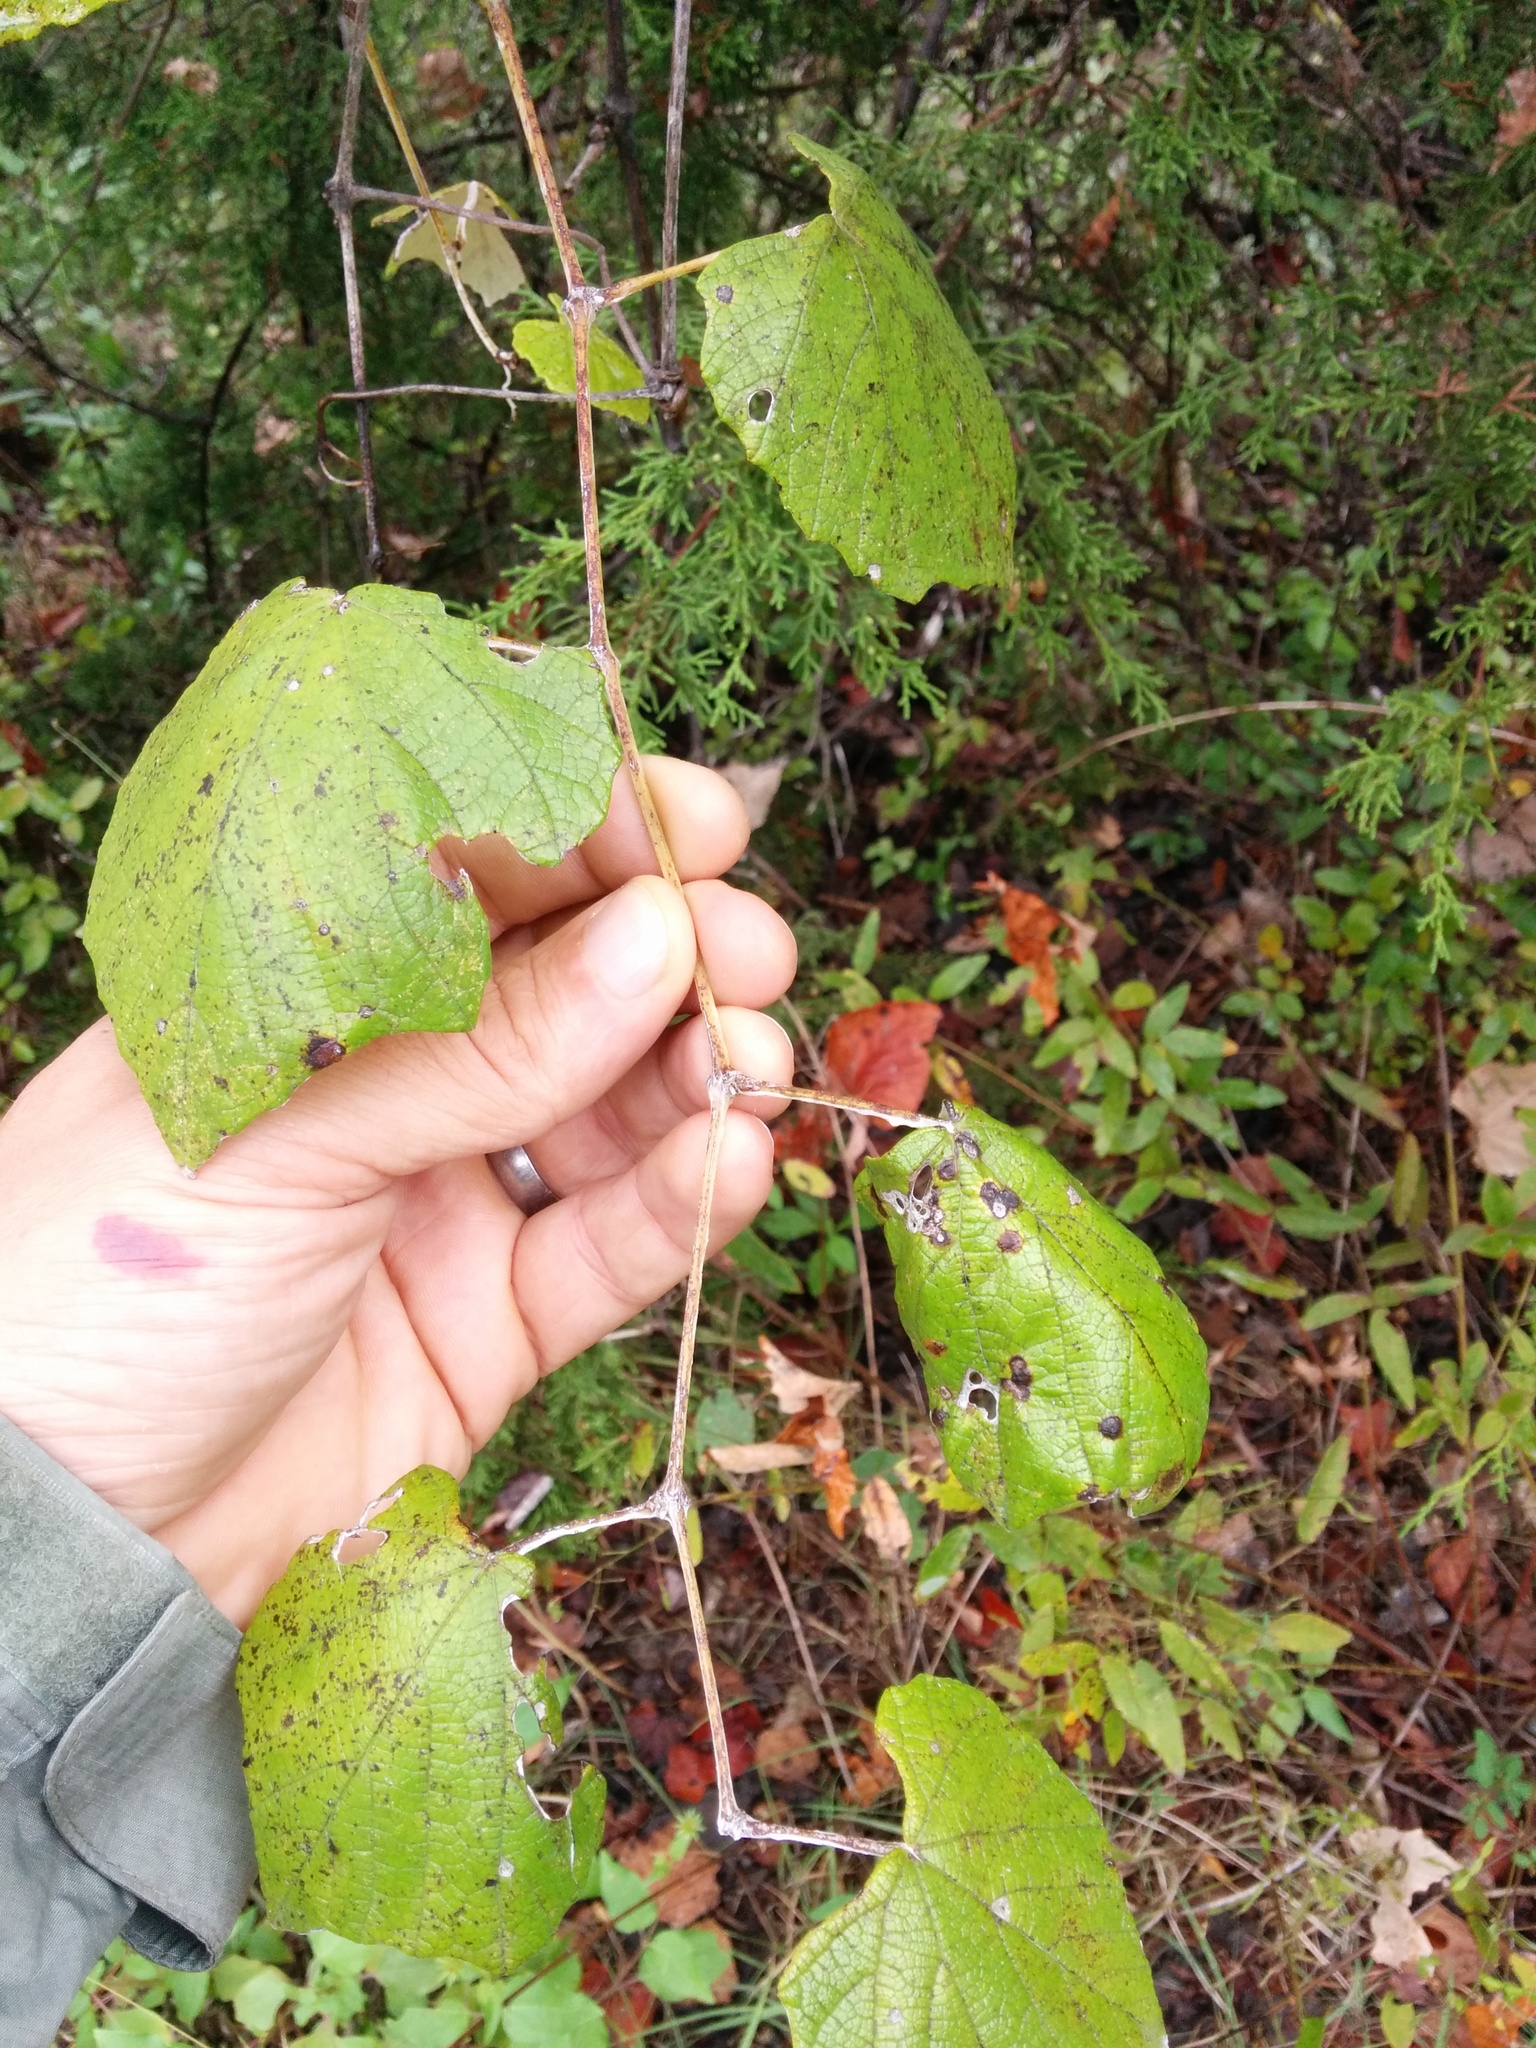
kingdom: Plantae
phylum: Tracheophyta
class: Magnoliopsida
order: Vitales
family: Vitaceae
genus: Vitis
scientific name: Vitis mustangensis
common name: Mustang grape
